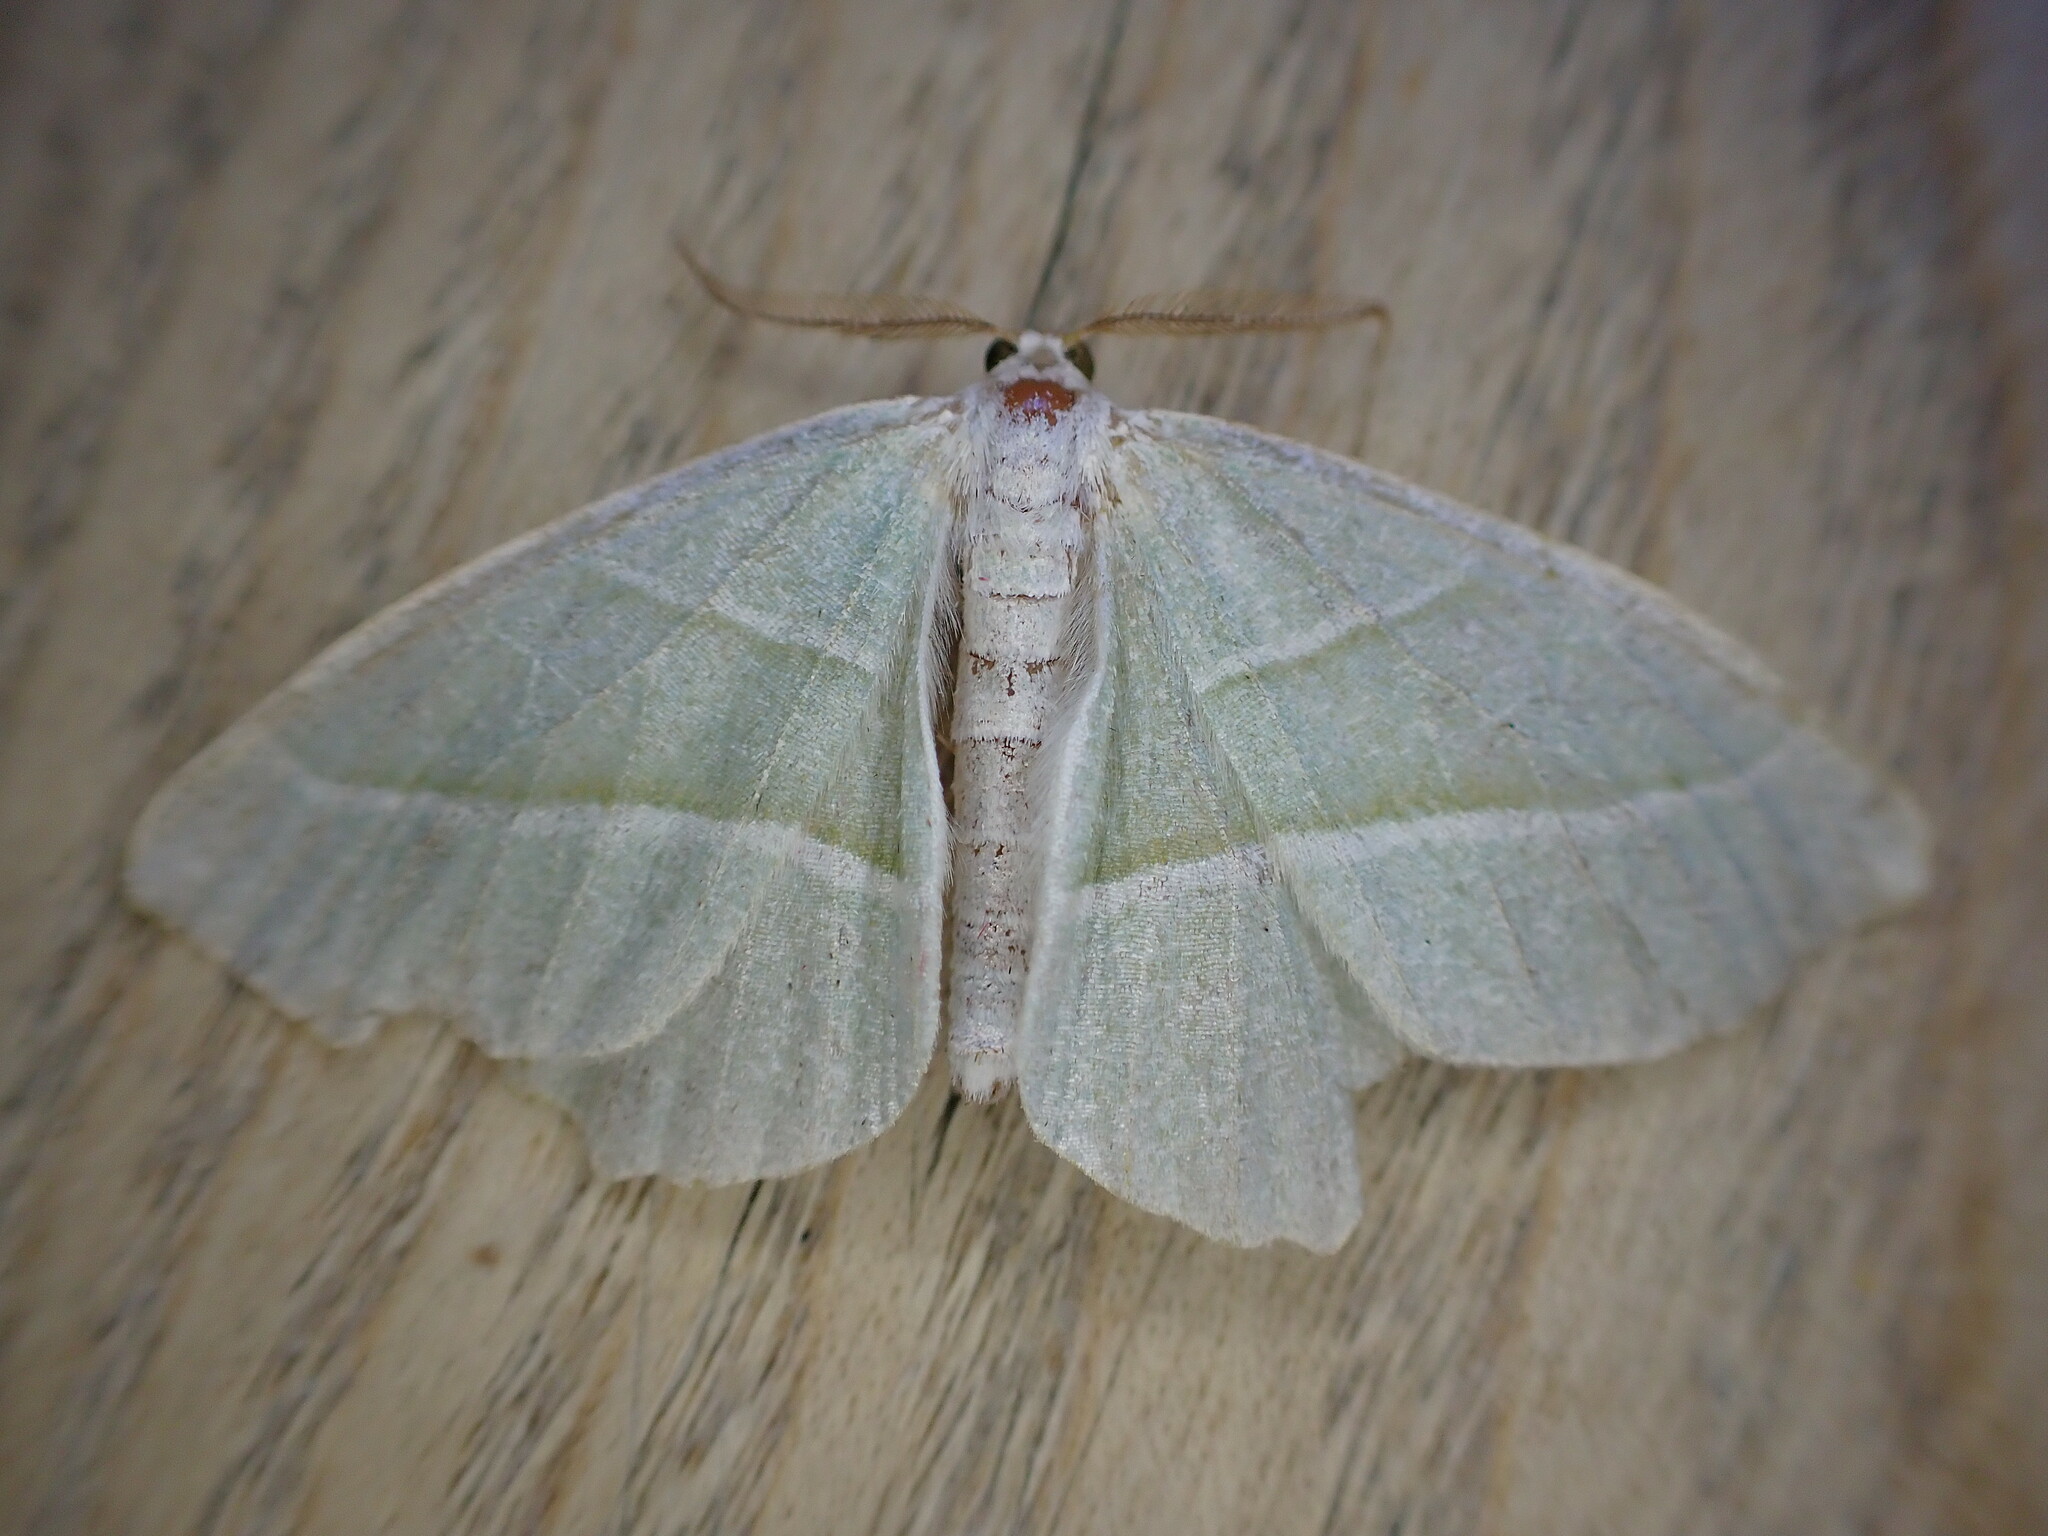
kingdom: Animalia
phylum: Arthropoda
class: Insecta
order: Lepidoptera
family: Geometridae
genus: Campaea
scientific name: Campaea margaritaria
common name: Light emerald
